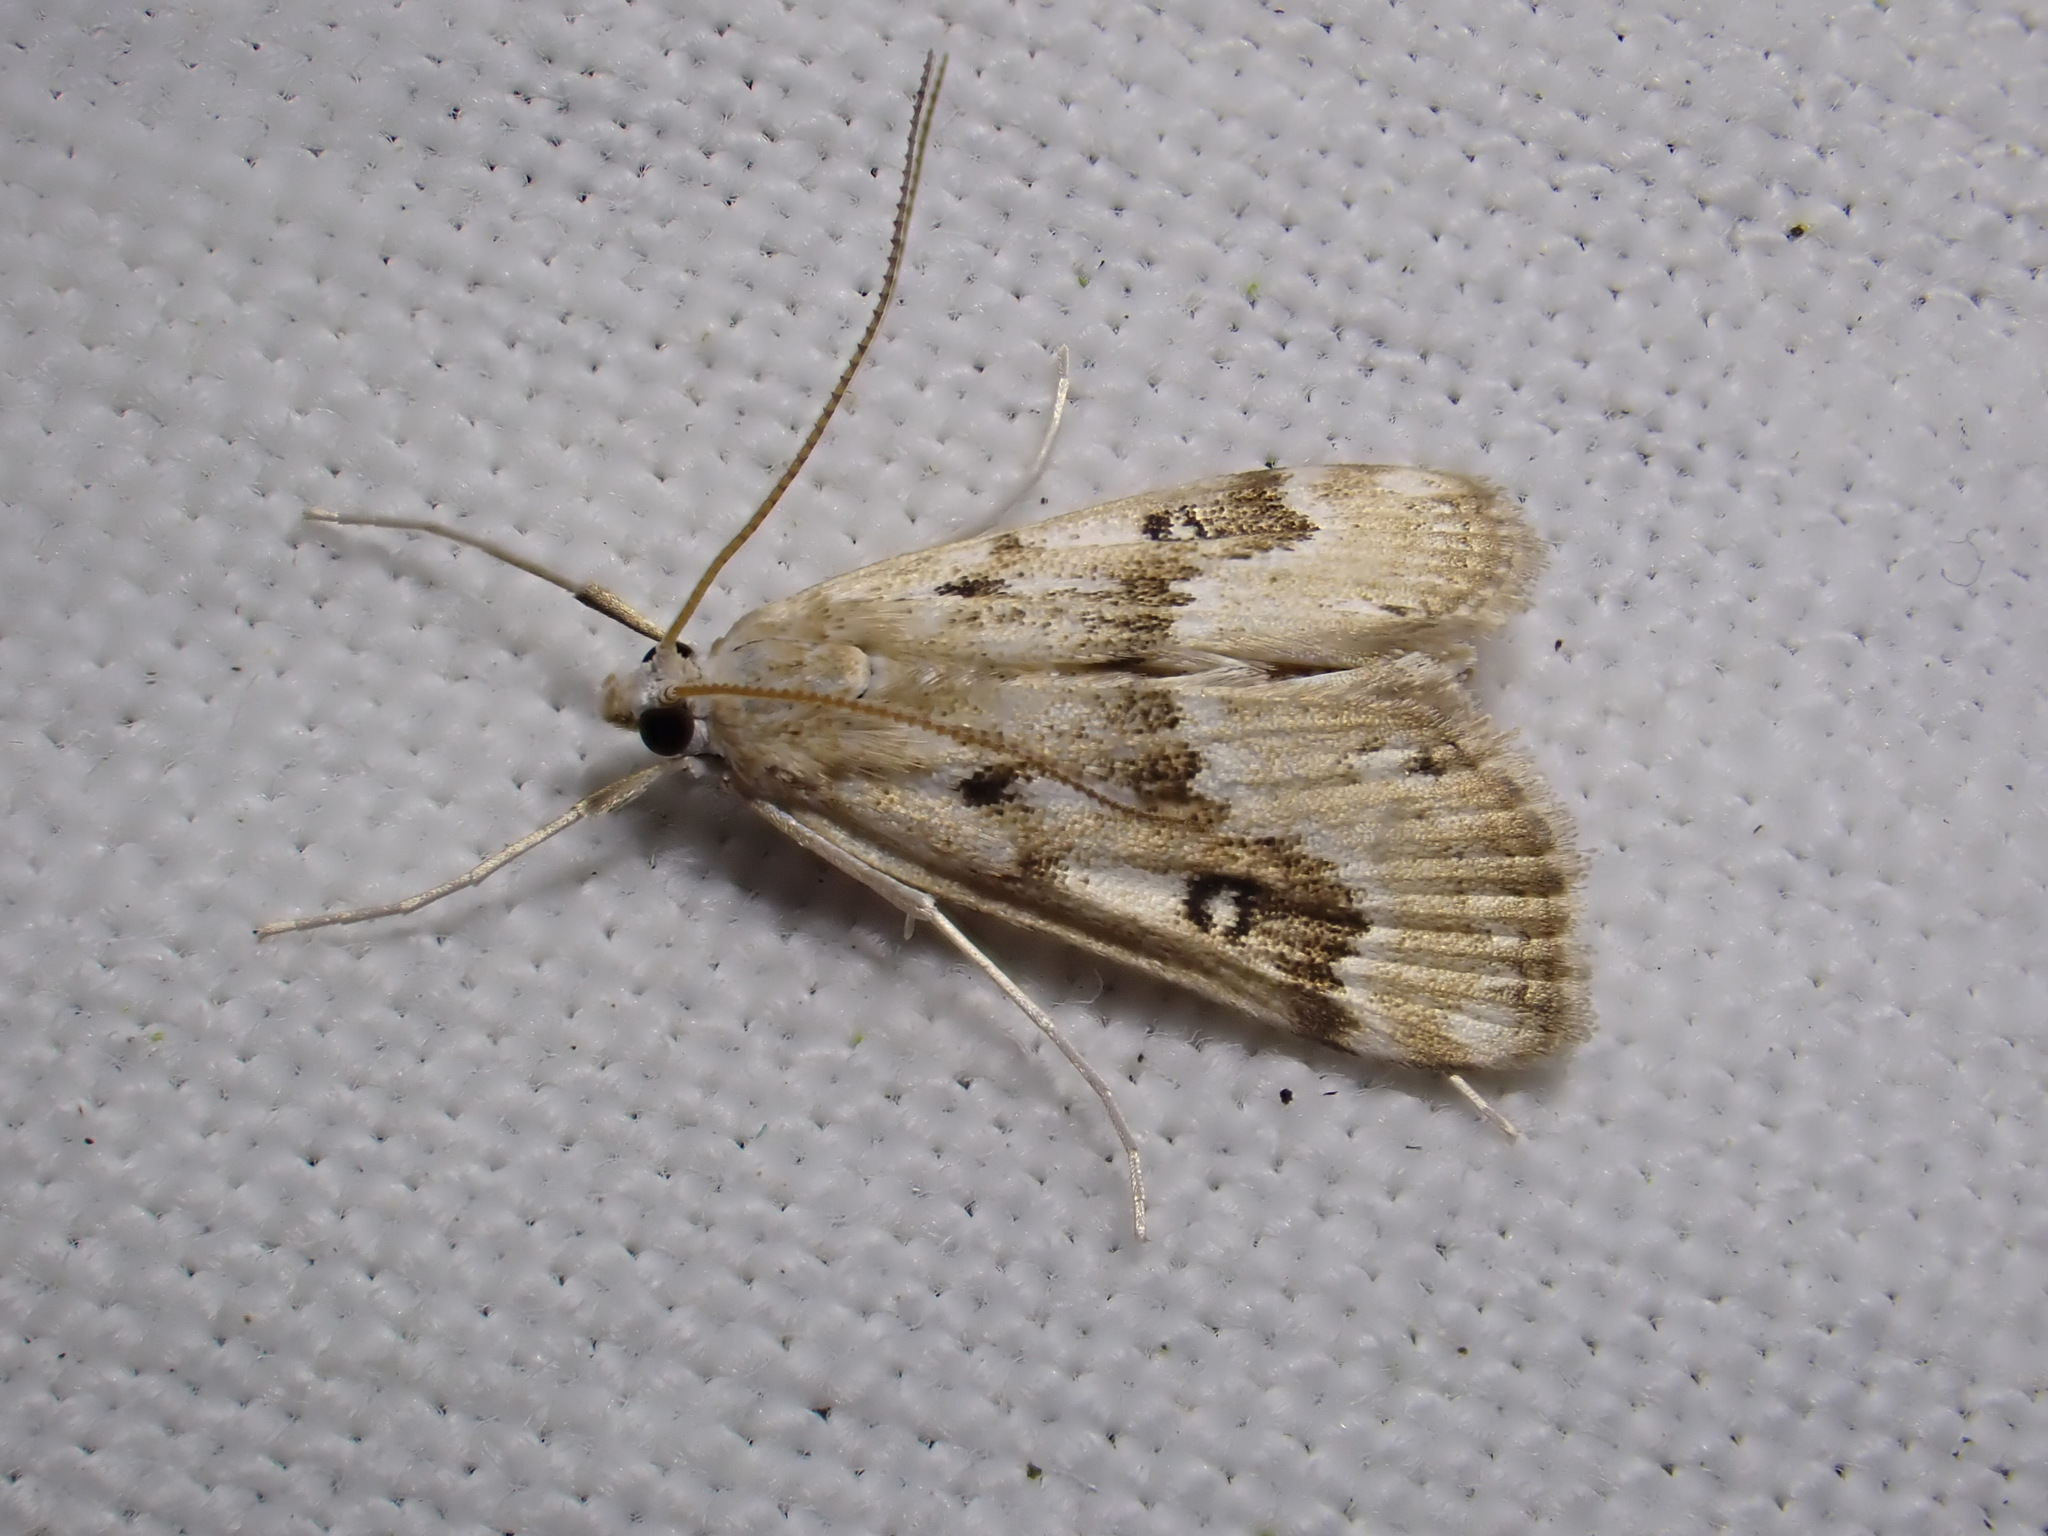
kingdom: Animalia
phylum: Arthropoda
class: Insecta
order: Lepidoptera
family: Crambidae
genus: Parapoynx
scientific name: Parapoynx stratiotata
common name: Ringed china-mark
